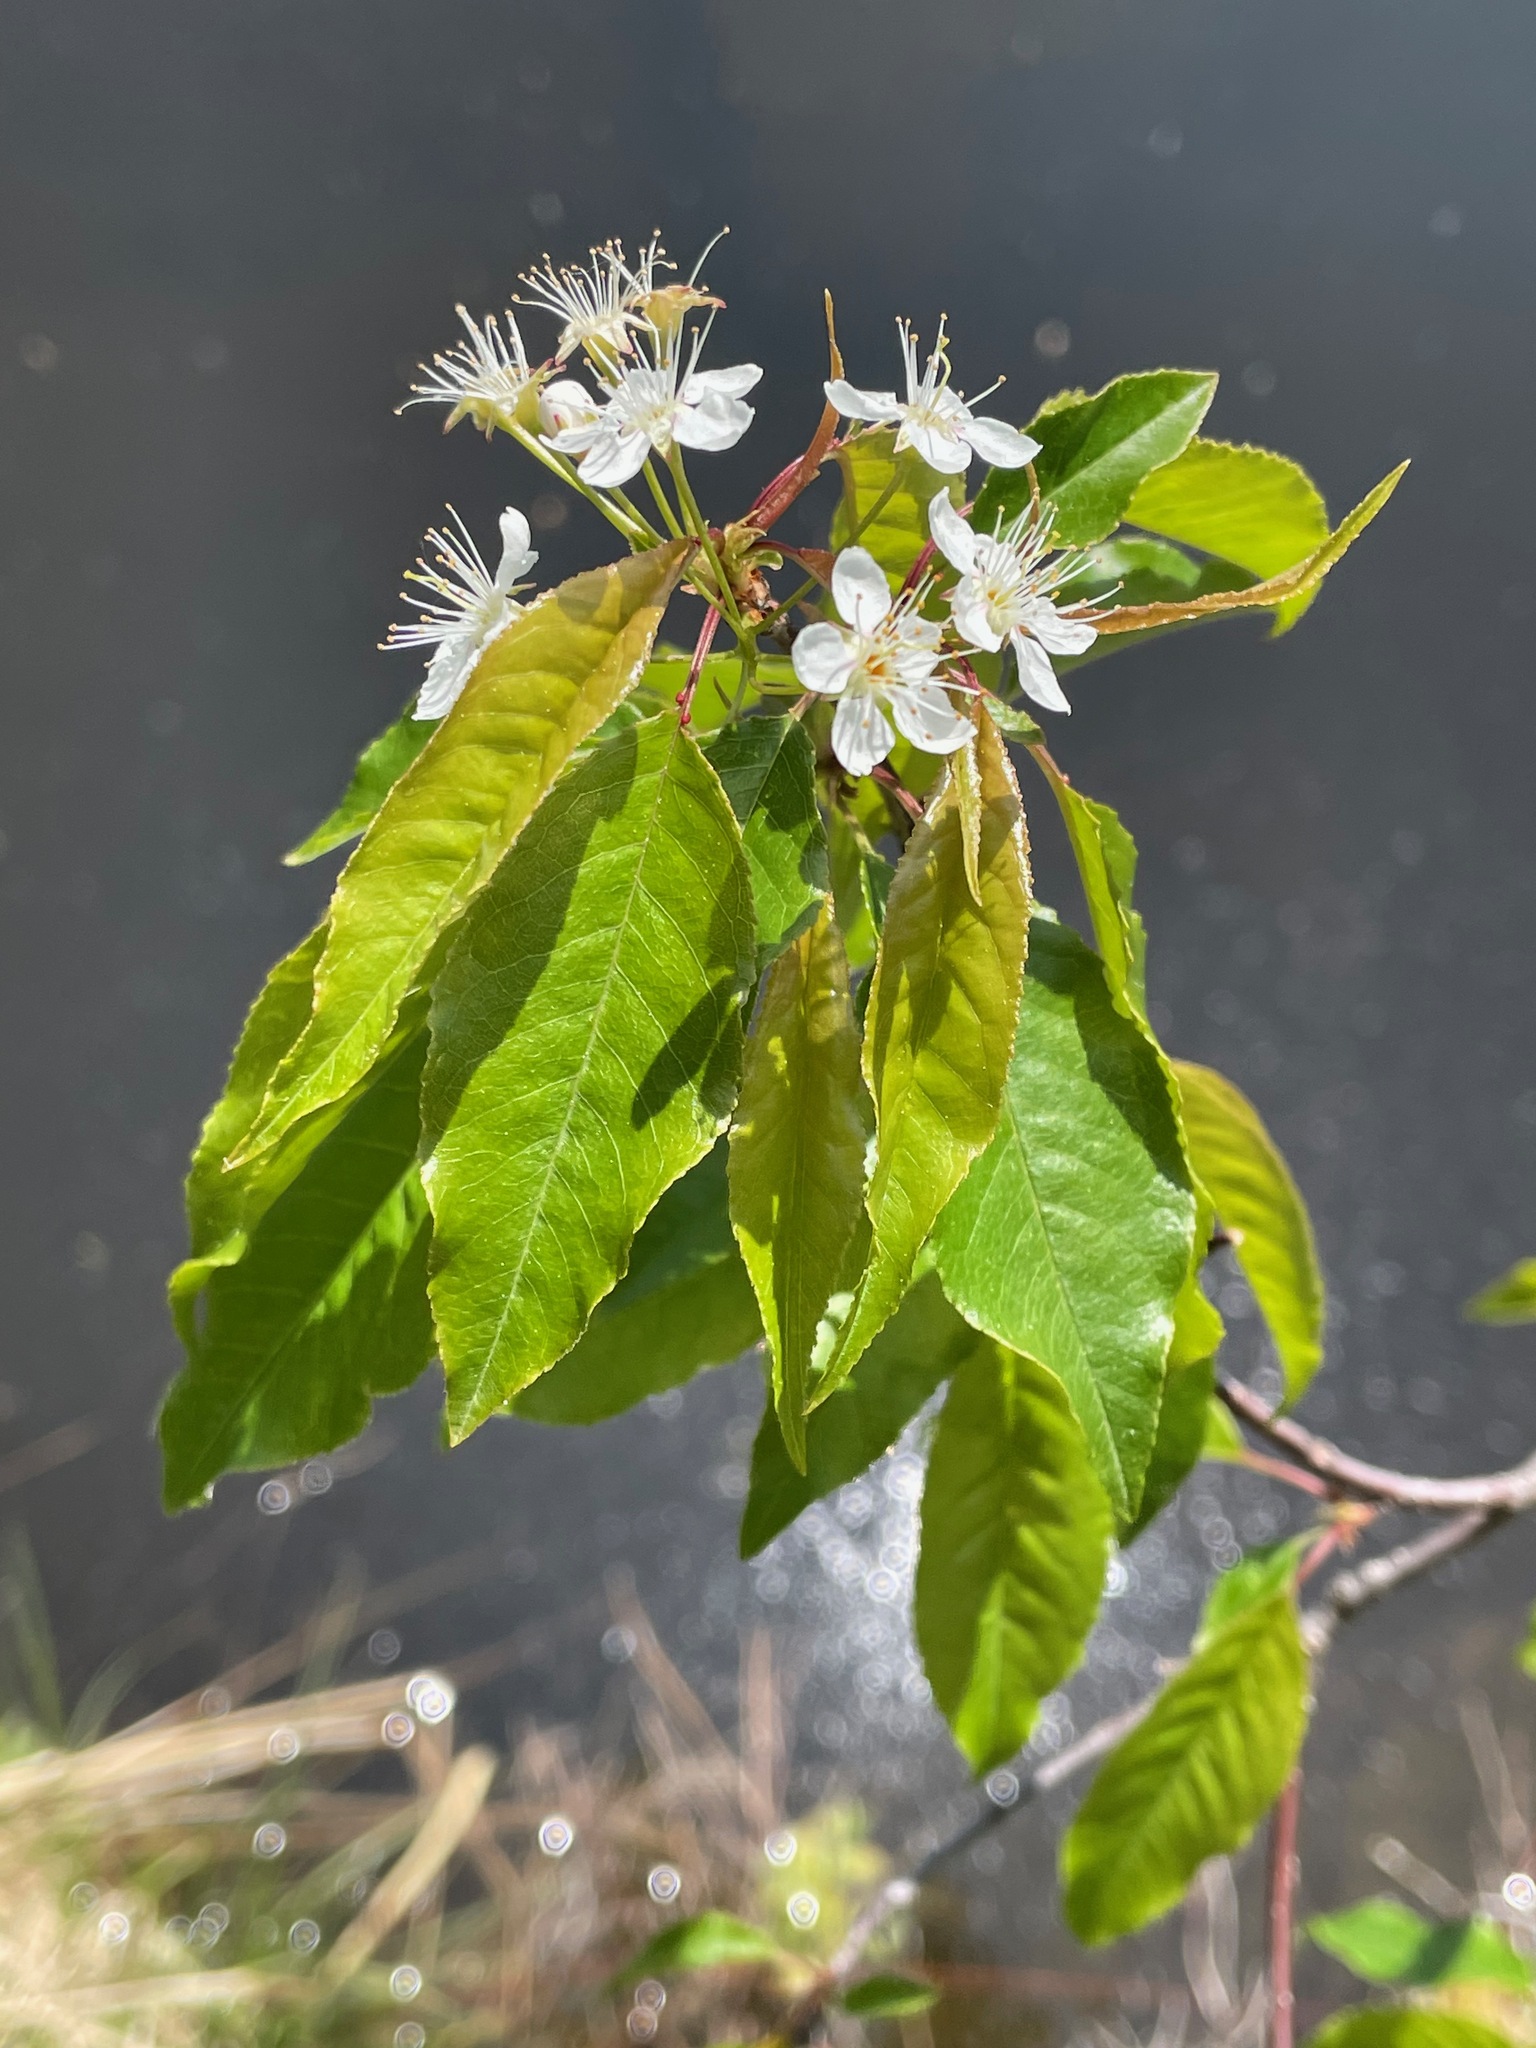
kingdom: Plantae
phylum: Tracheophyta
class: Magnoliopsida
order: Rosales
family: Rosaceae
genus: Prunus
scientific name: Prunus pensylvanica
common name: Pin cherry
